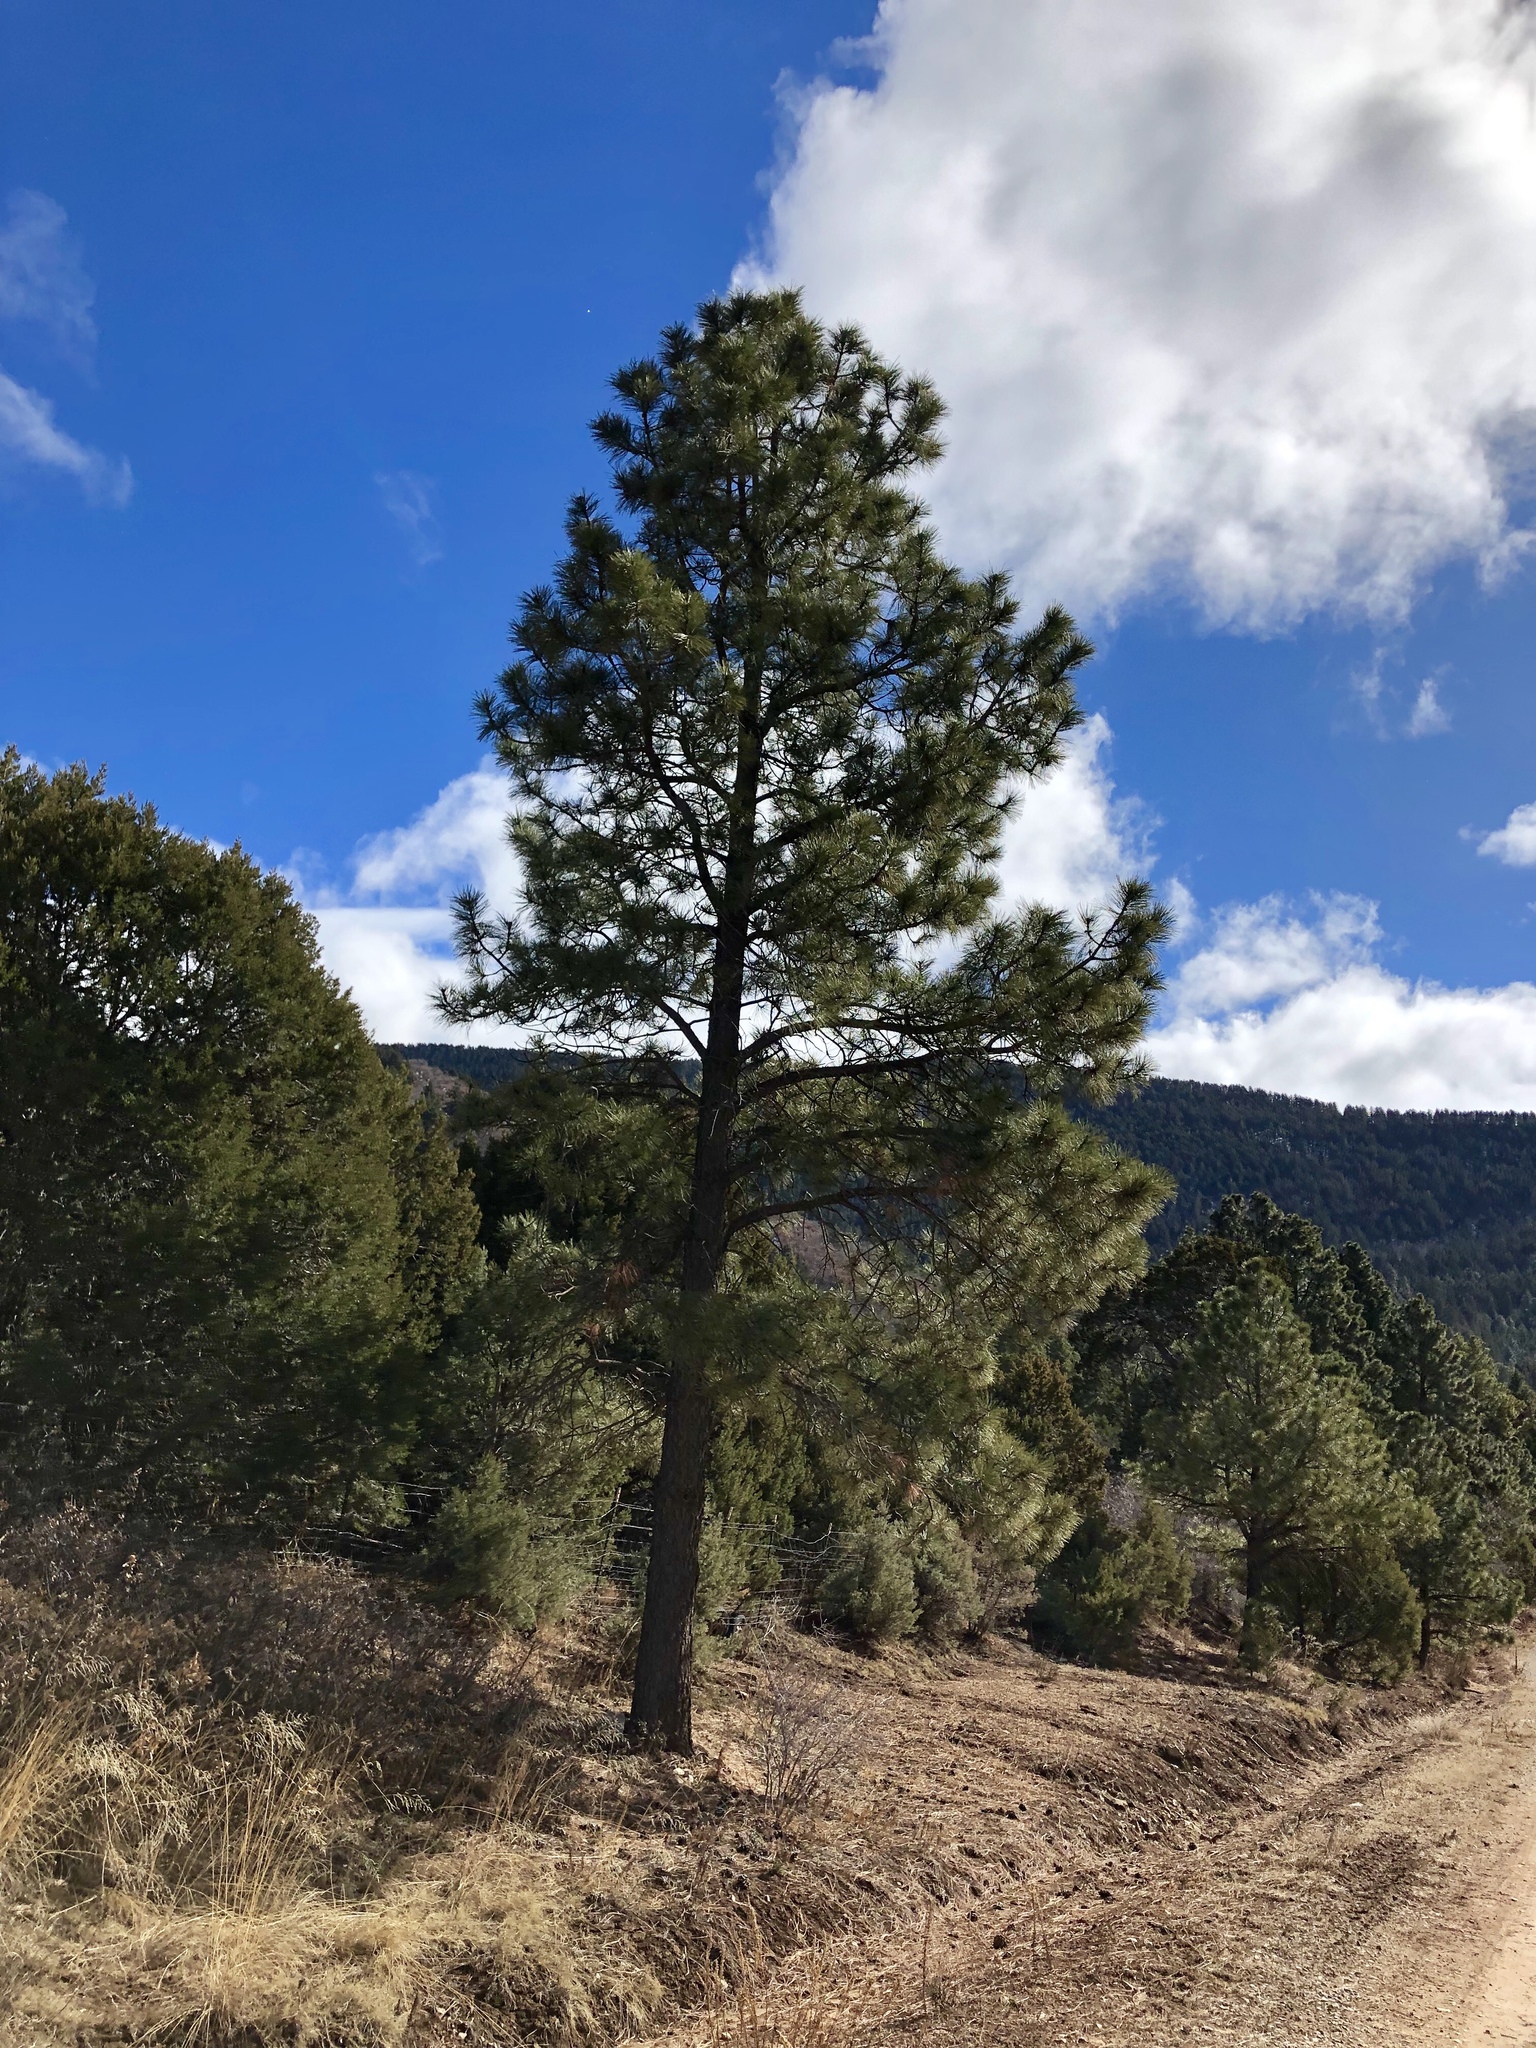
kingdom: Plantae
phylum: Tracheophyta
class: Pinopsida
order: Pinales
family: Pinaceae
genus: Pinus
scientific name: Pinus ponderosa
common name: Western yellow-pine
